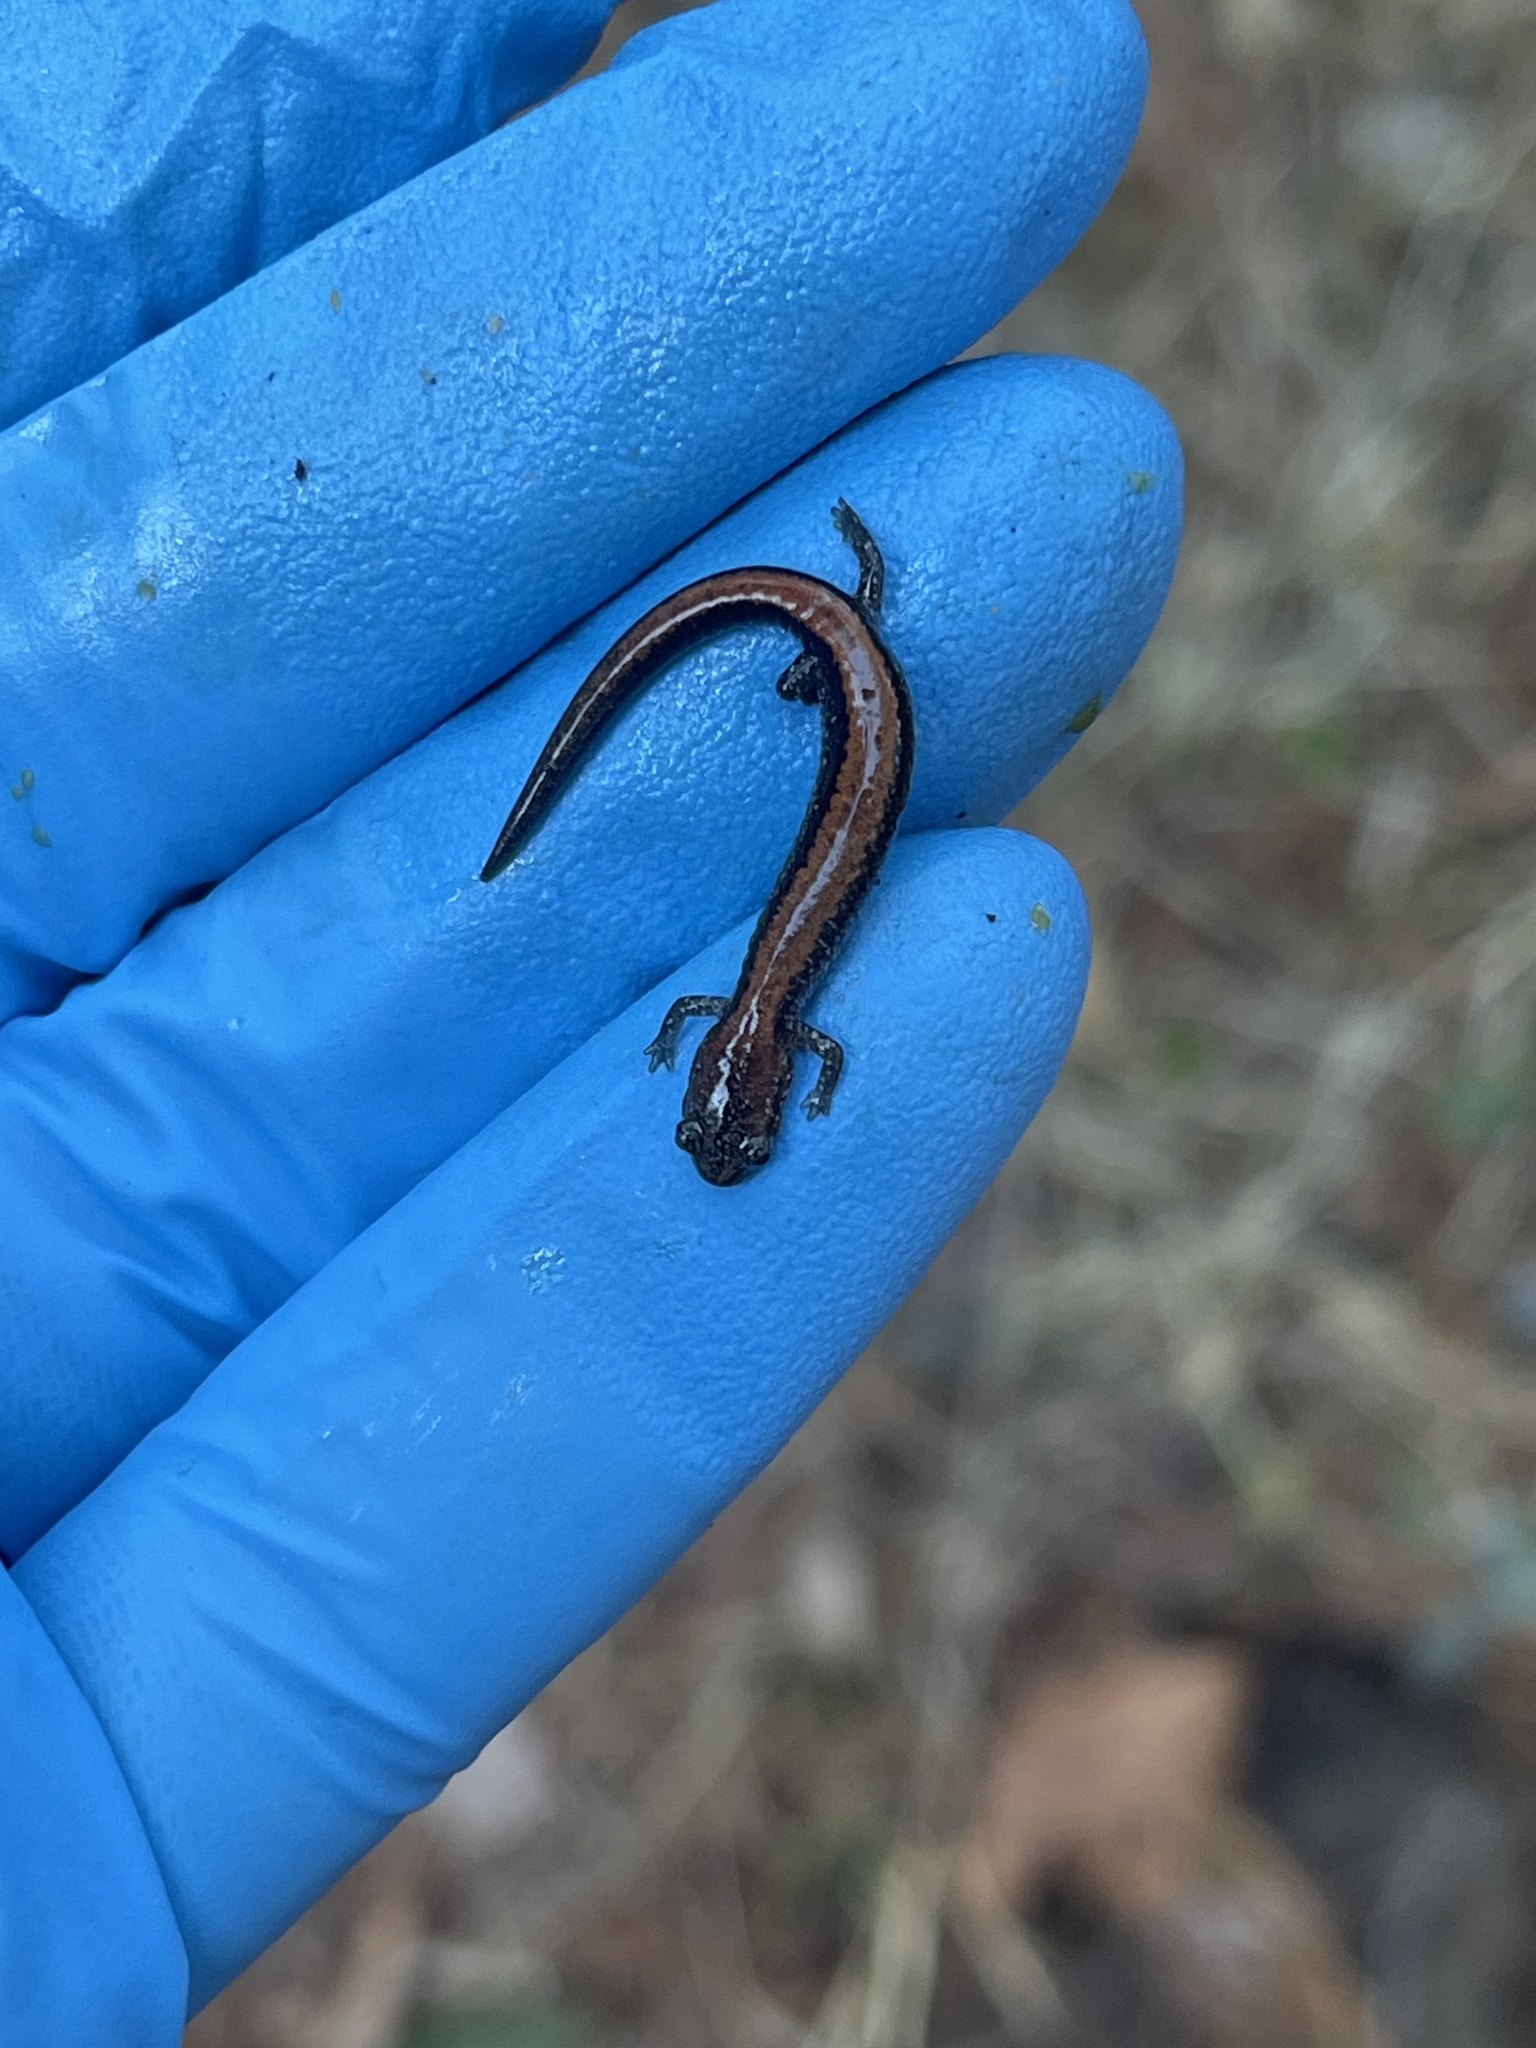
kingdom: Animalia
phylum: Chordata
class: Amphibia
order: Caudata
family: Plethodontidae
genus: Plethodon
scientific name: Plethodon cinereus
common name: Redback salamander
